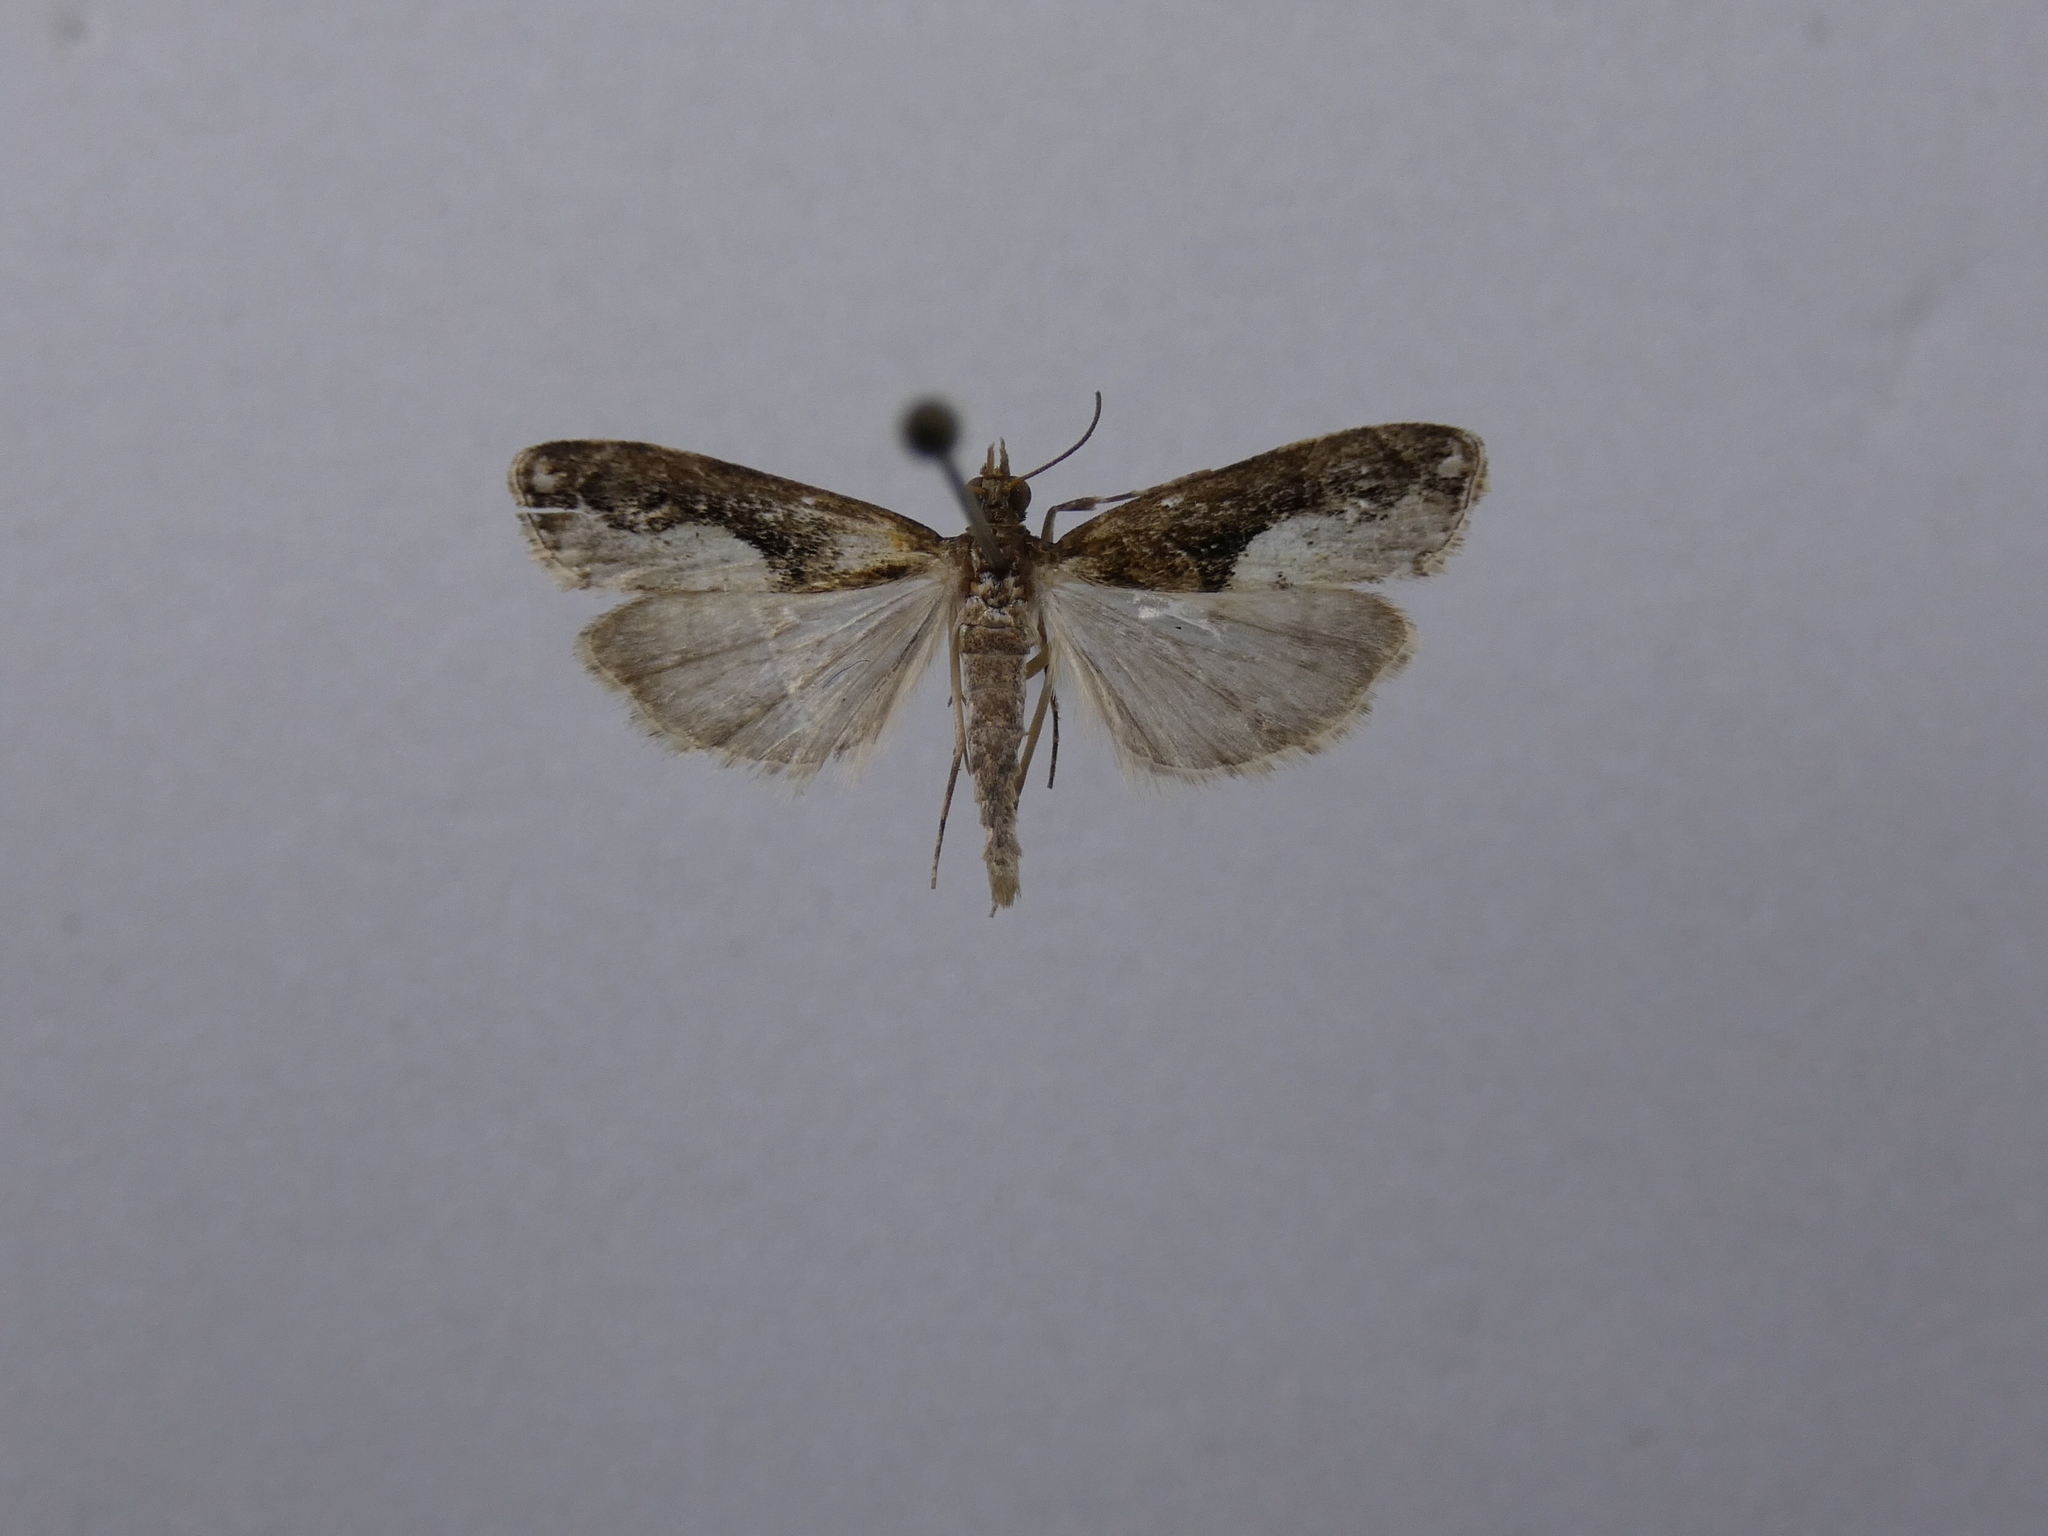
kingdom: Animalia
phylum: Arthropoda
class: Insecta
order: Lepidoptera
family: Crambidae
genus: Eudonia
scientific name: Eudonia hemiplaca
